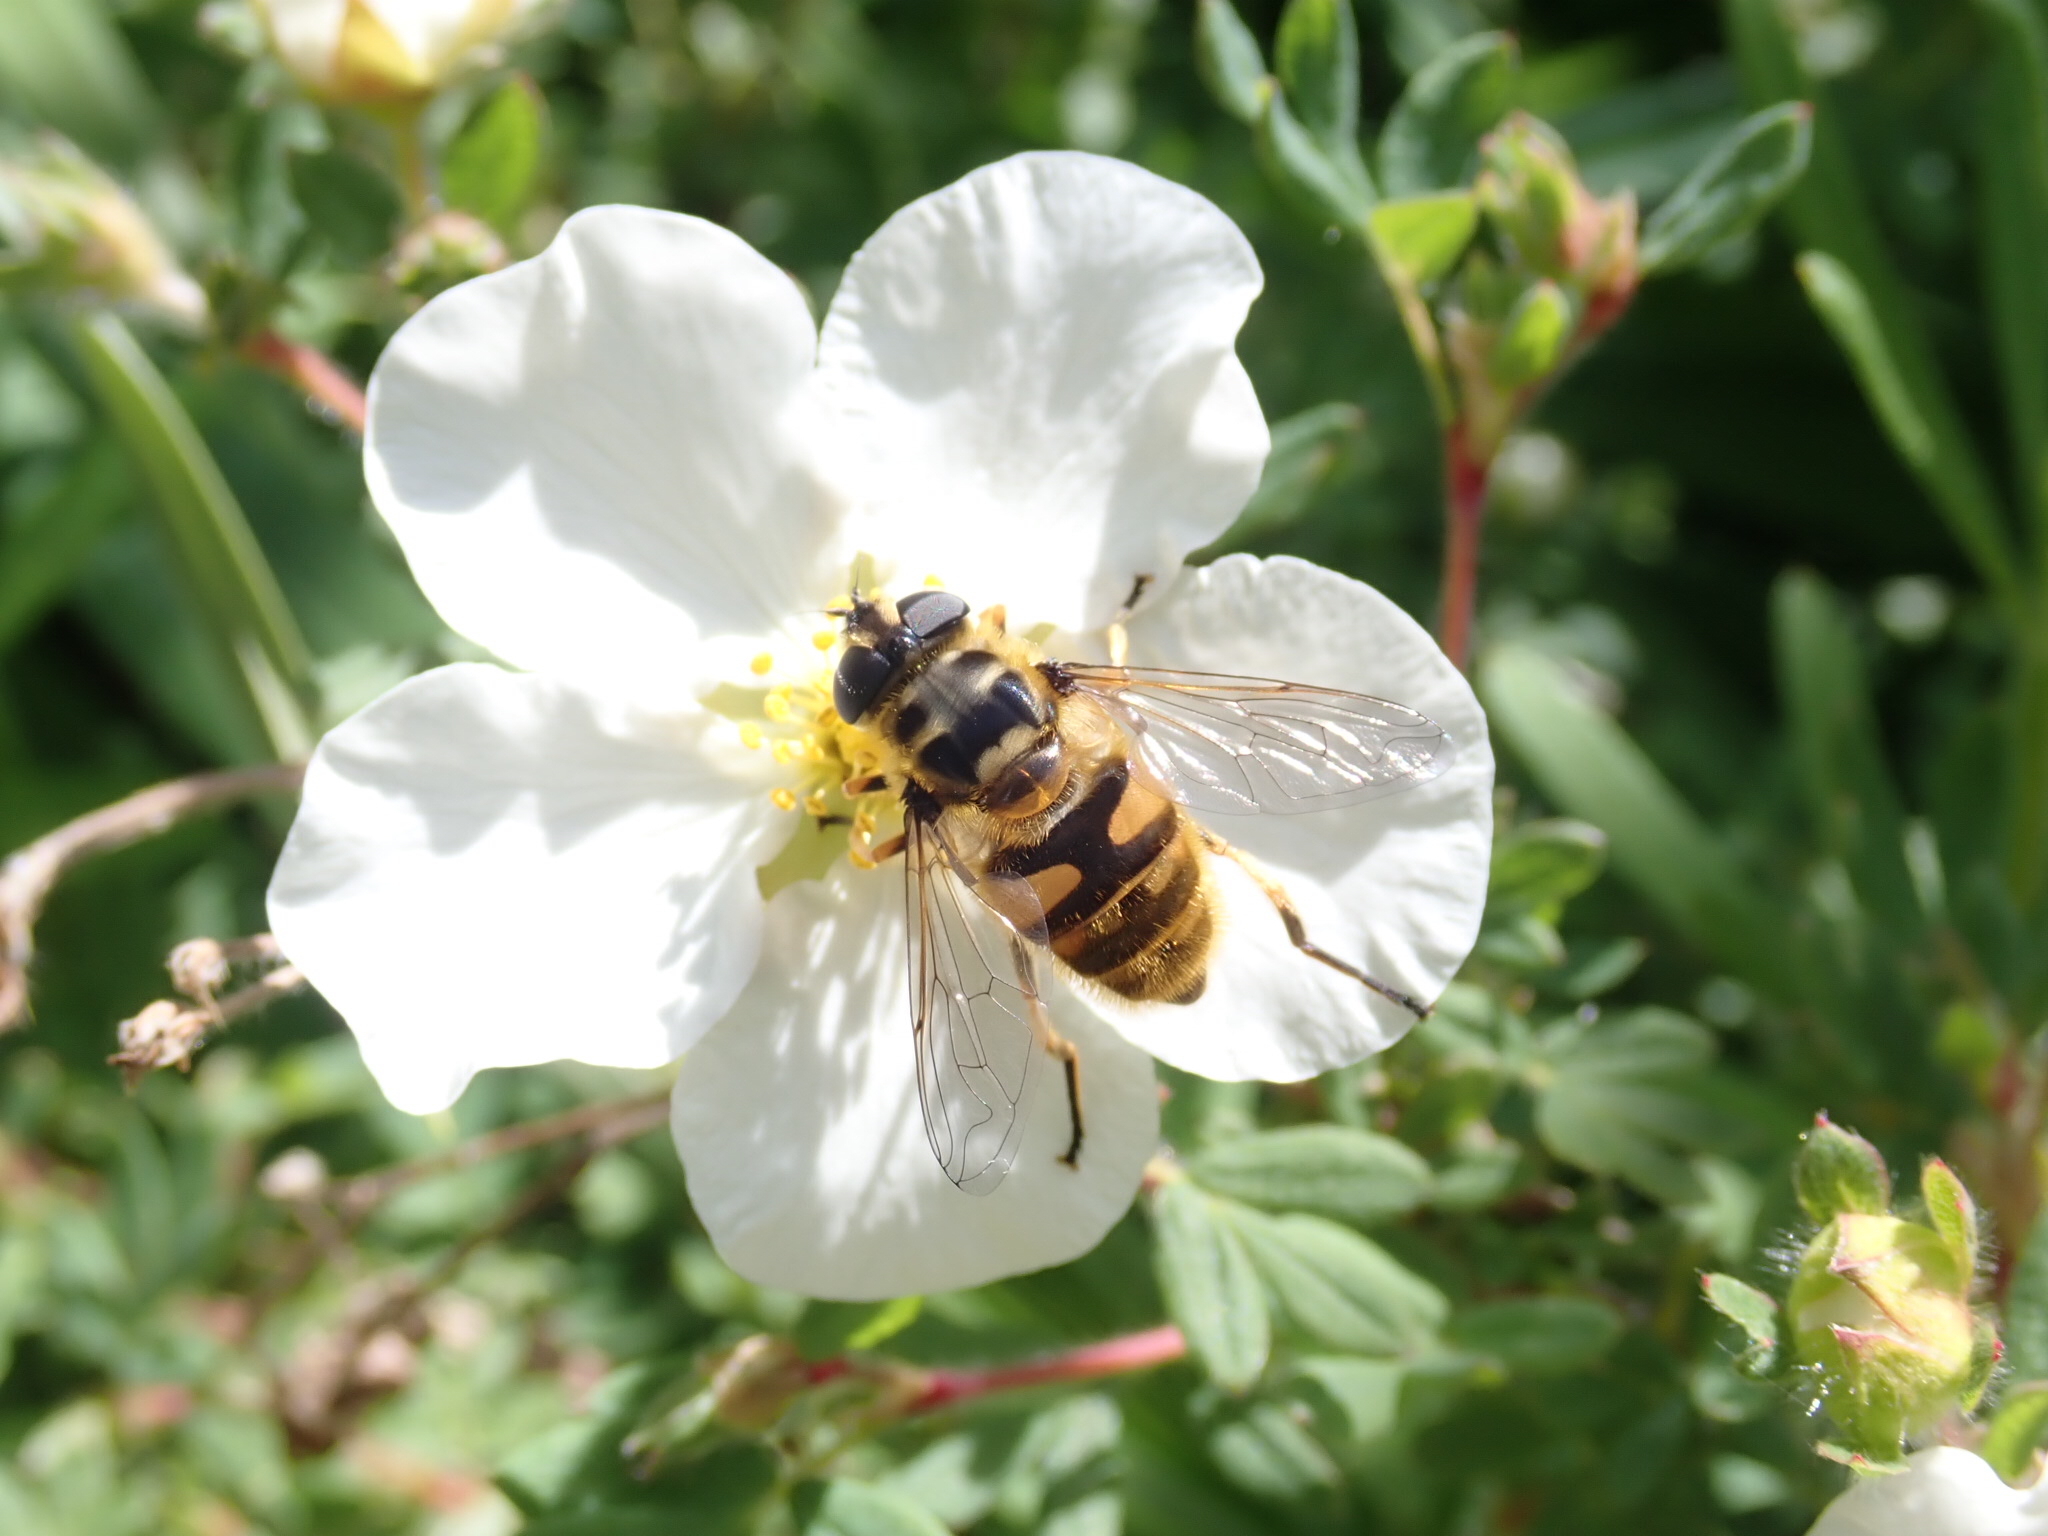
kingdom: Animalia
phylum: Arthropoda
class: Insecta
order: Diptera
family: Syrphidae
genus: Myathropa
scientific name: Myathropa florea
